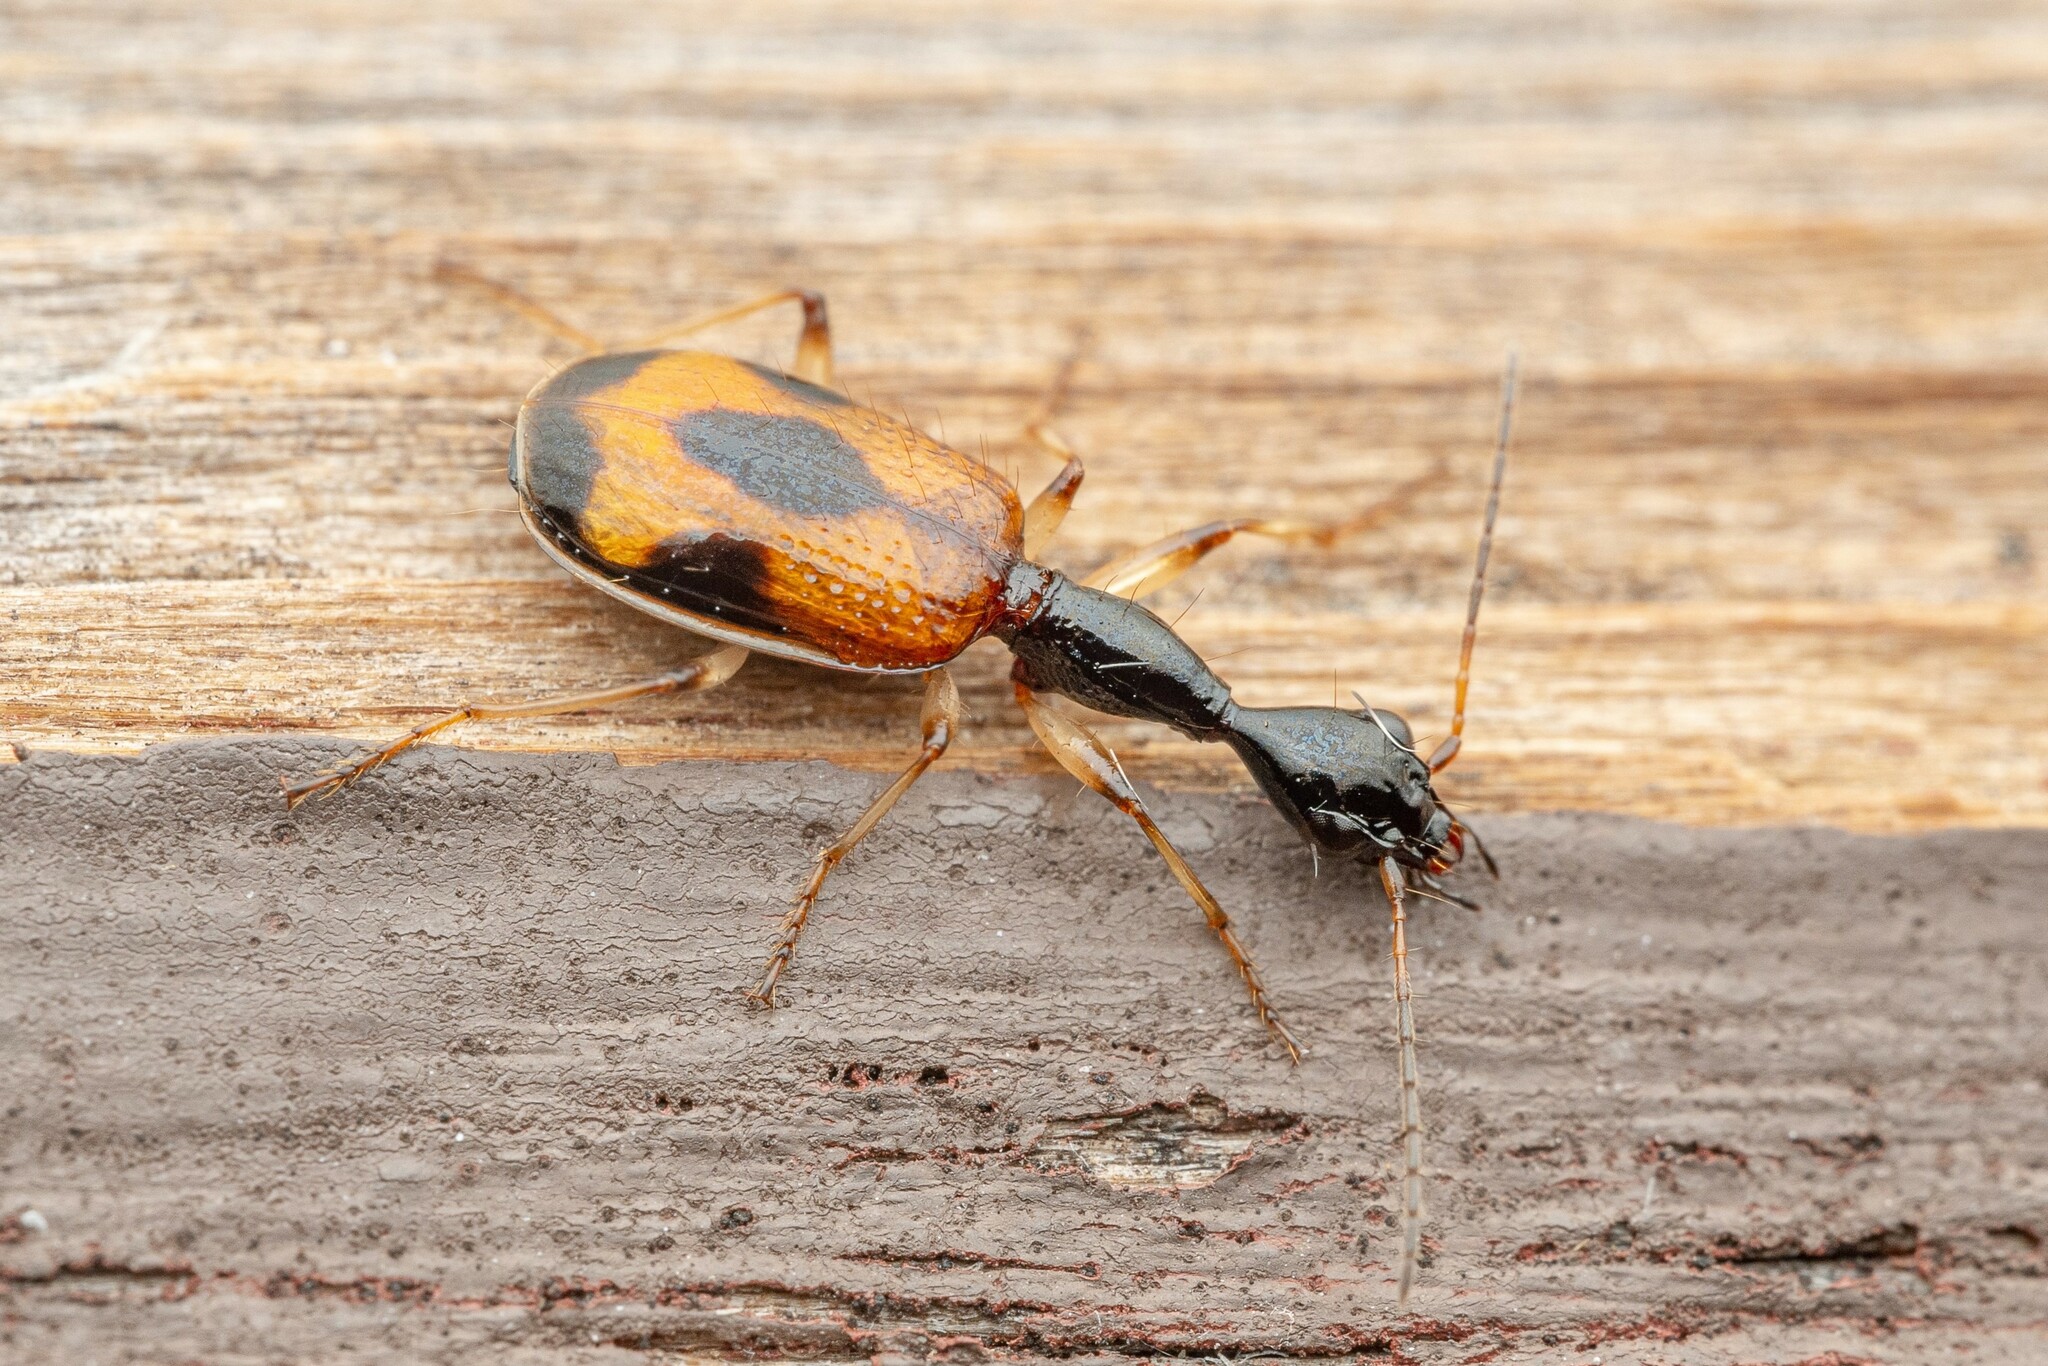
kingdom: Animalia
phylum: Arthropoda
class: Insecta
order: Coleoptera
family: Carabidae
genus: Colliuris
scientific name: Colliuris pensylvanica
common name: Long-necked ground beetle
